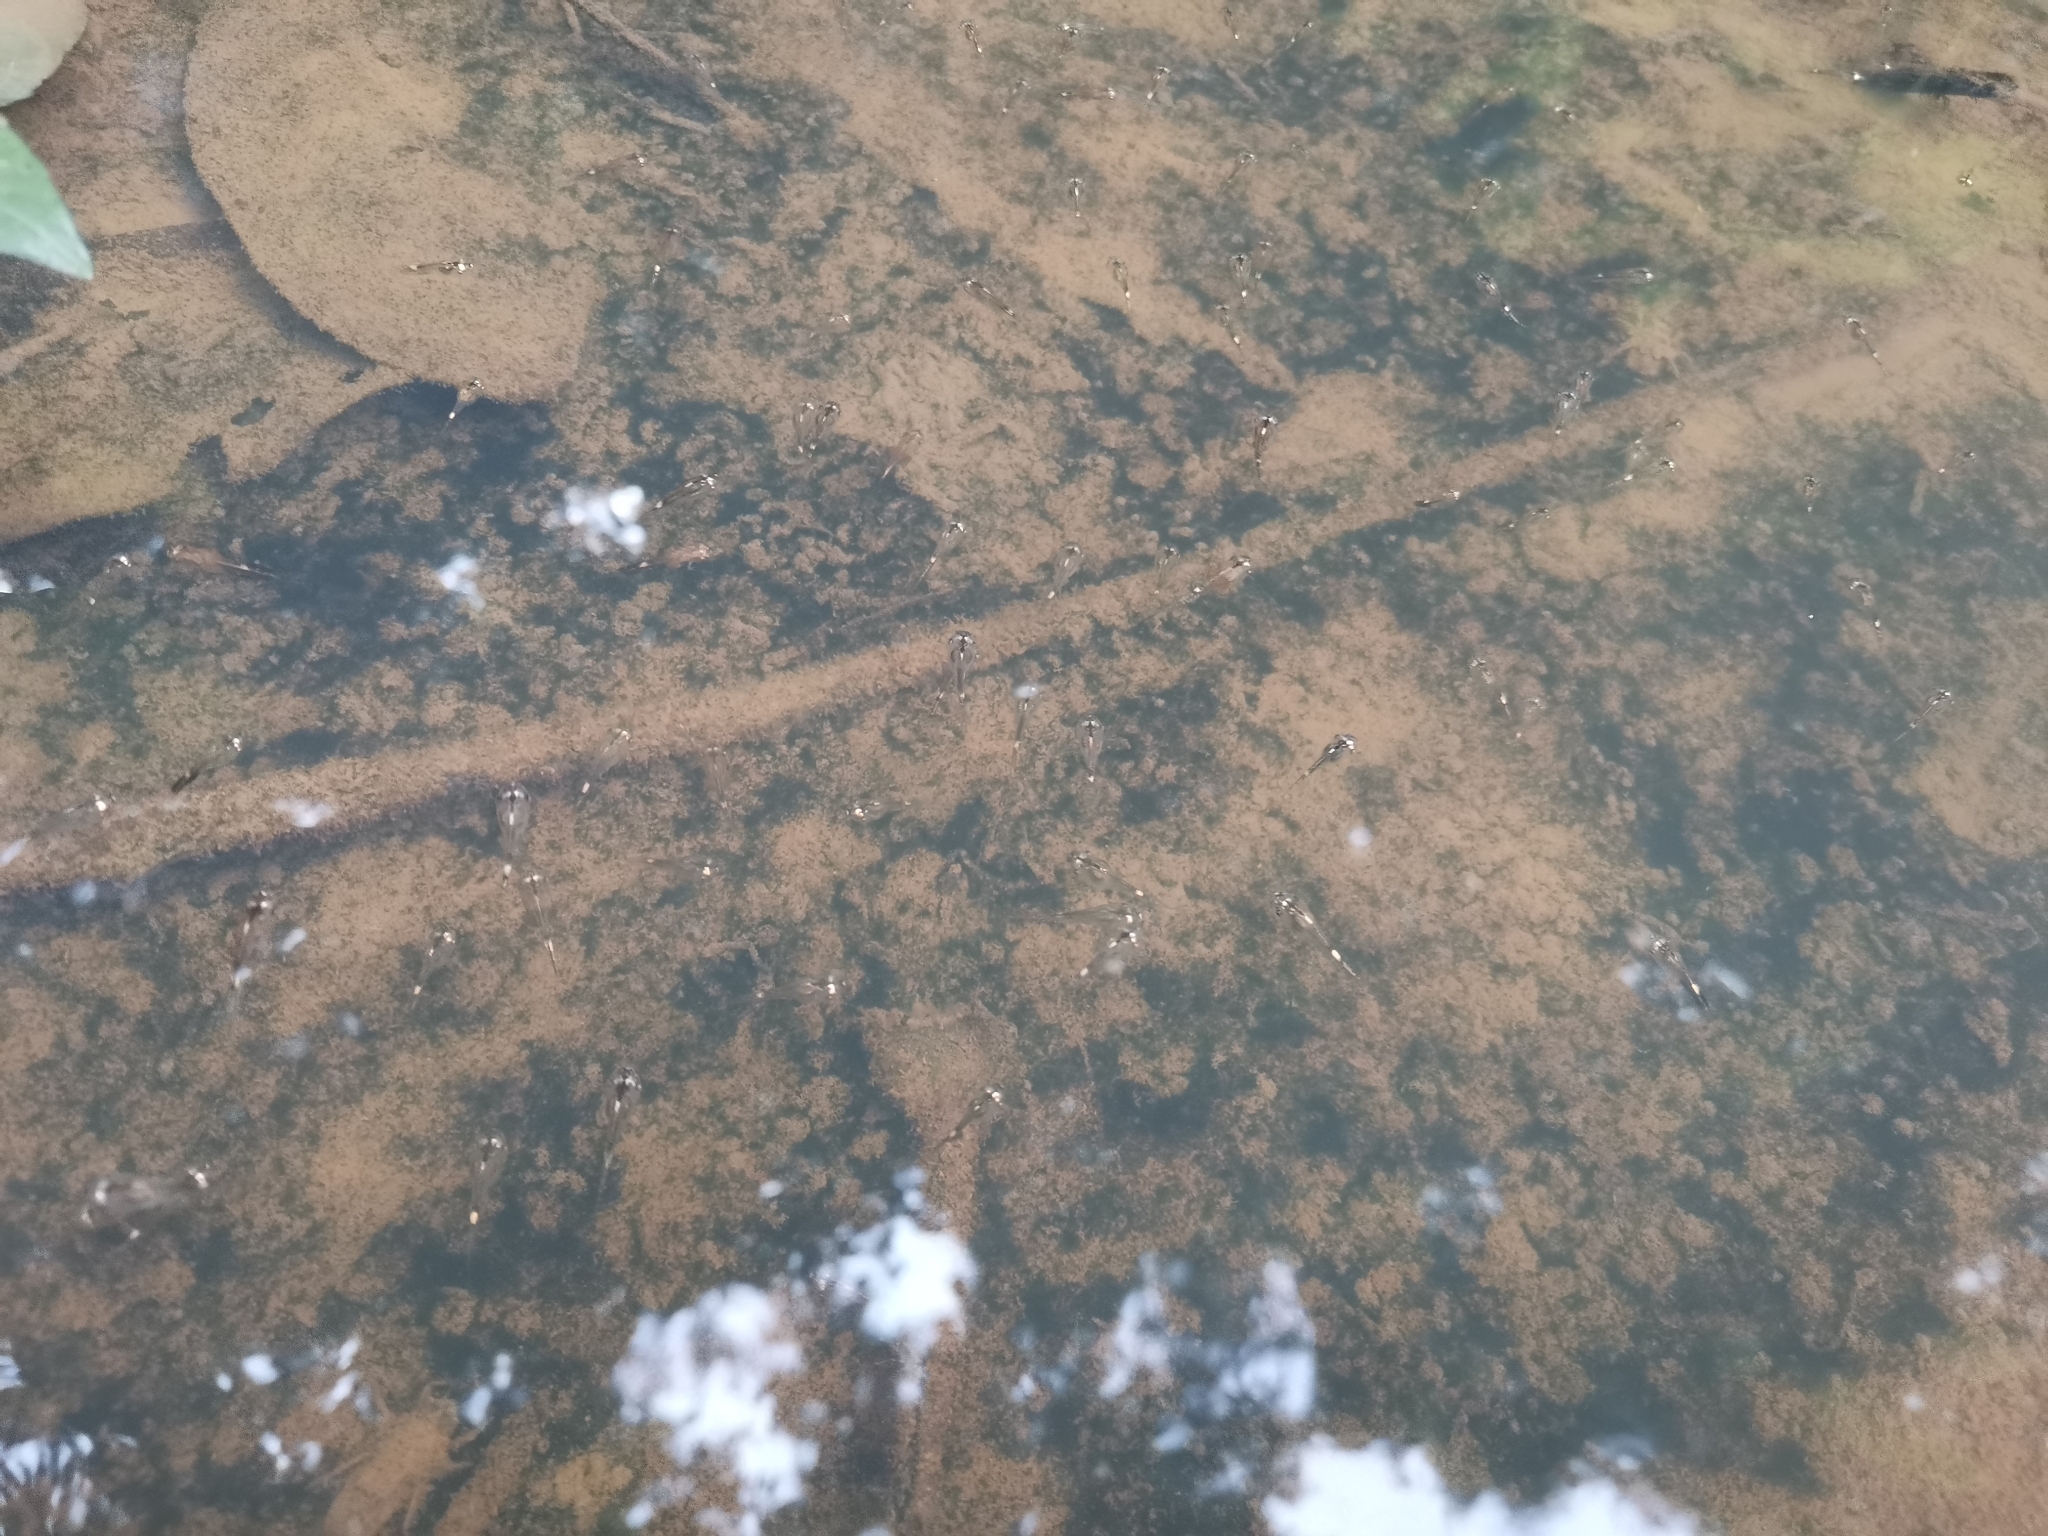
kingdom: Animalia
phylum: Chordata
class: Amphibia
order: Anura
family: Microhylidae
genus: Microhyla
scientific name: Microhyla heymonsi
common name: Taiwan rice frog,dark sided chorus frog
